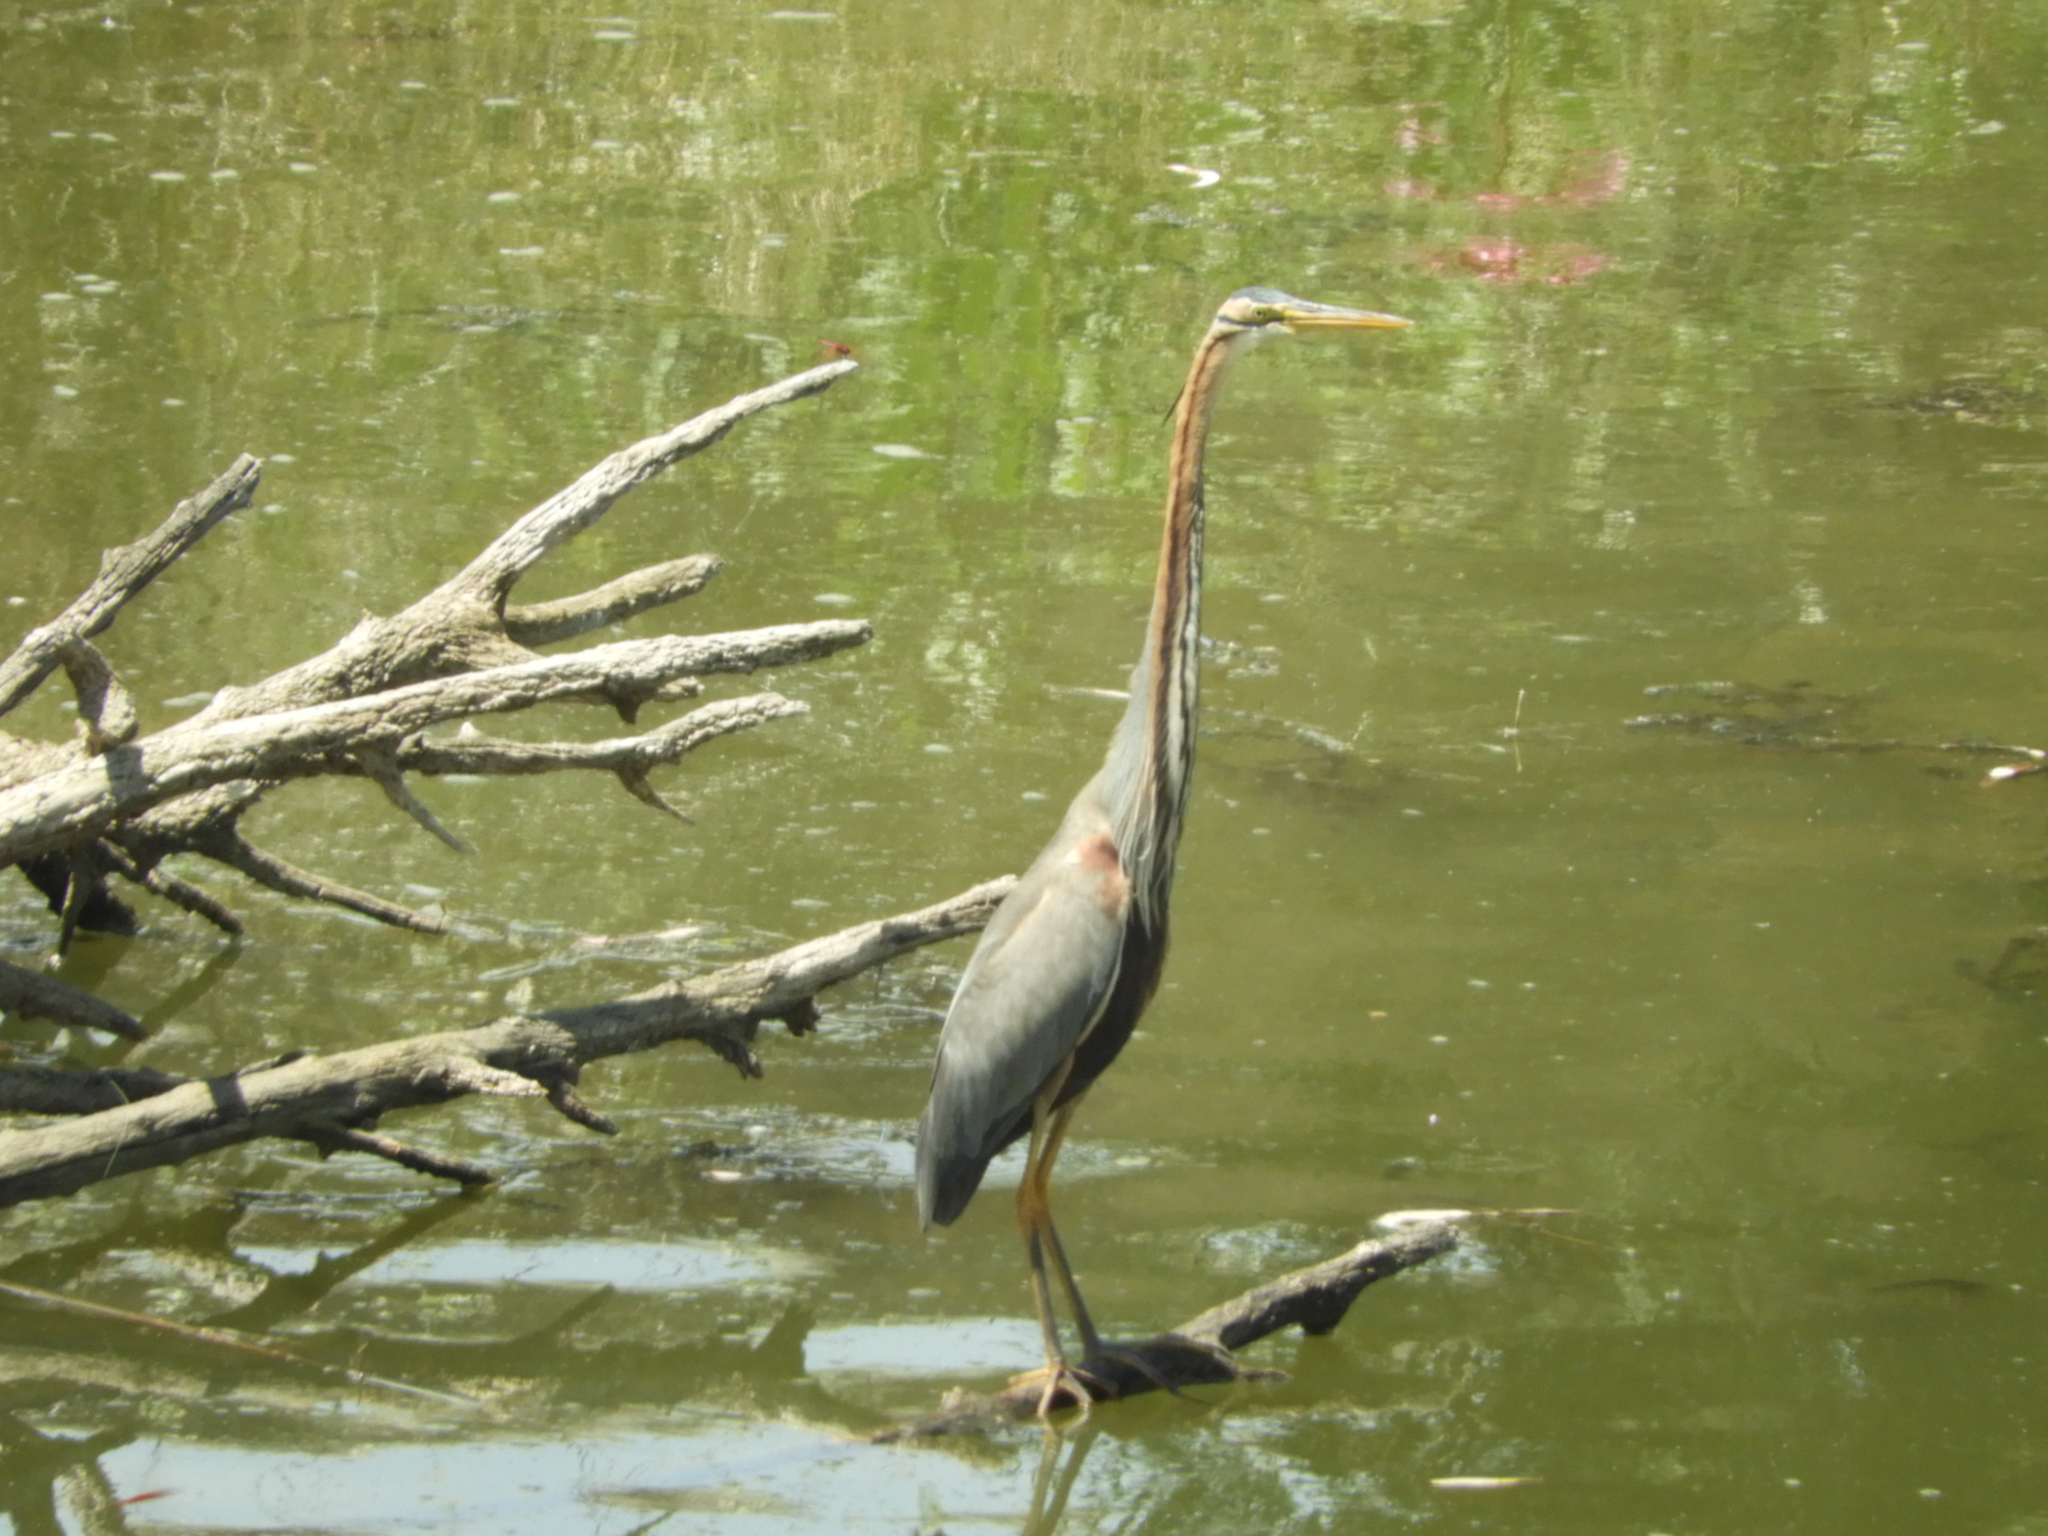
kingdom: Animalia
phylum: Chordata
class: Aves
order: Pelecaniformes
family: Ardeidae
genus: Ardea
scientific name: Ardea purpurea
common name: Purple heron
